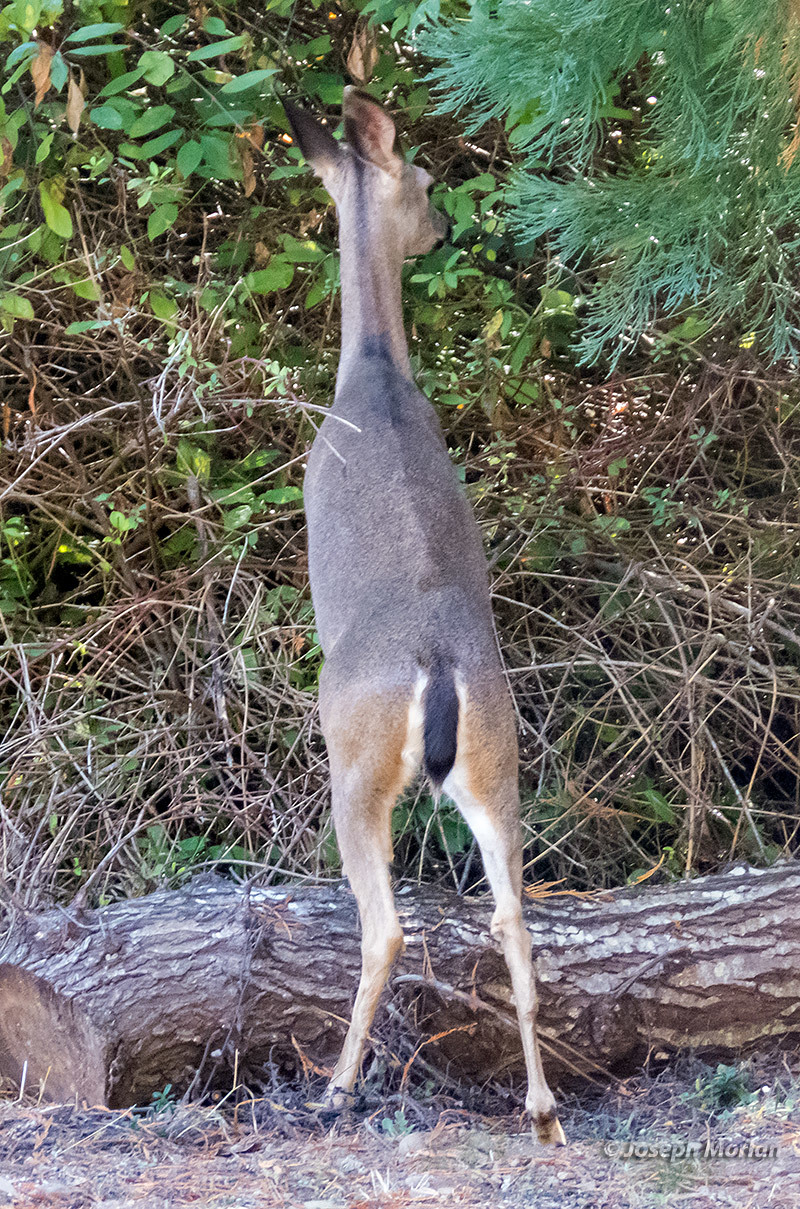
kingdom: Animalia
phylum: Chordata
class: Mammalia
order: Artiodactyla
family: Cervidae
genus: Odocoileus
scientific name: Odocoileus hemionus
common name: Mule deer
